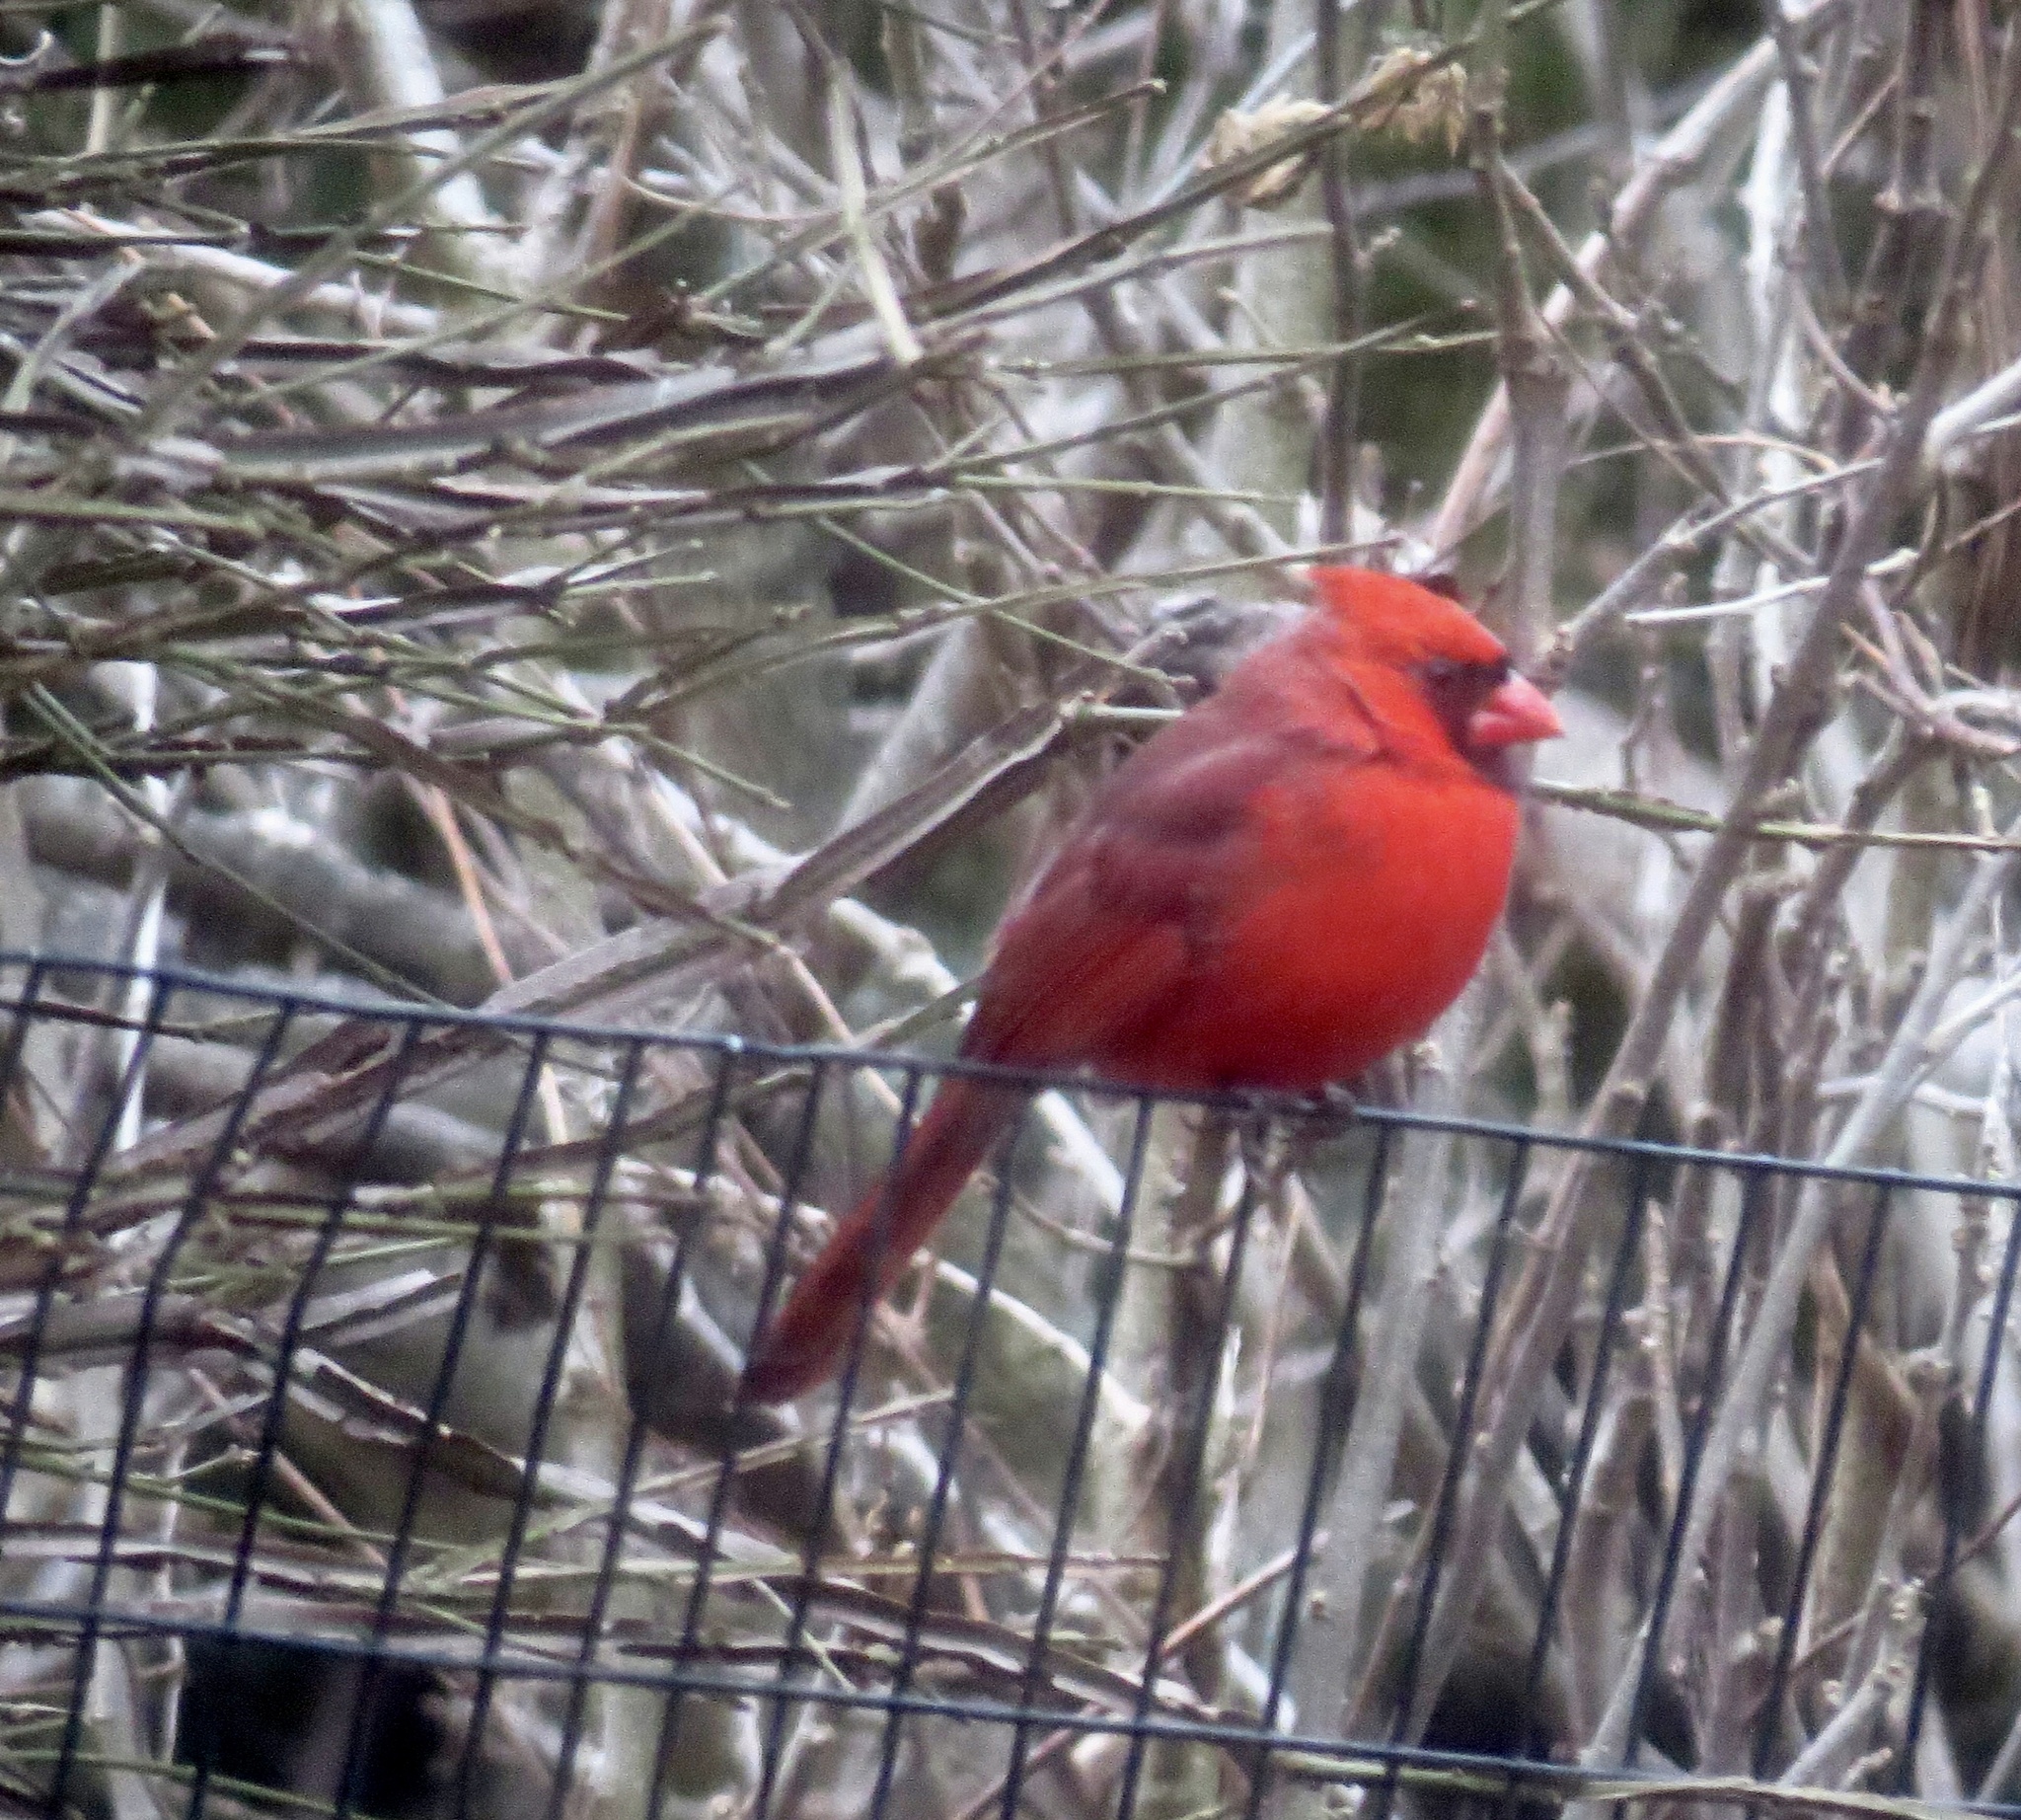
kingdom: Animalia
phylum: Chordata
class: Aves
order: Passeriformes
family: Cardinalidae
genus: Cardinalis
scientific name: Cardinalis cardinalis
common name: Northern cardinal
